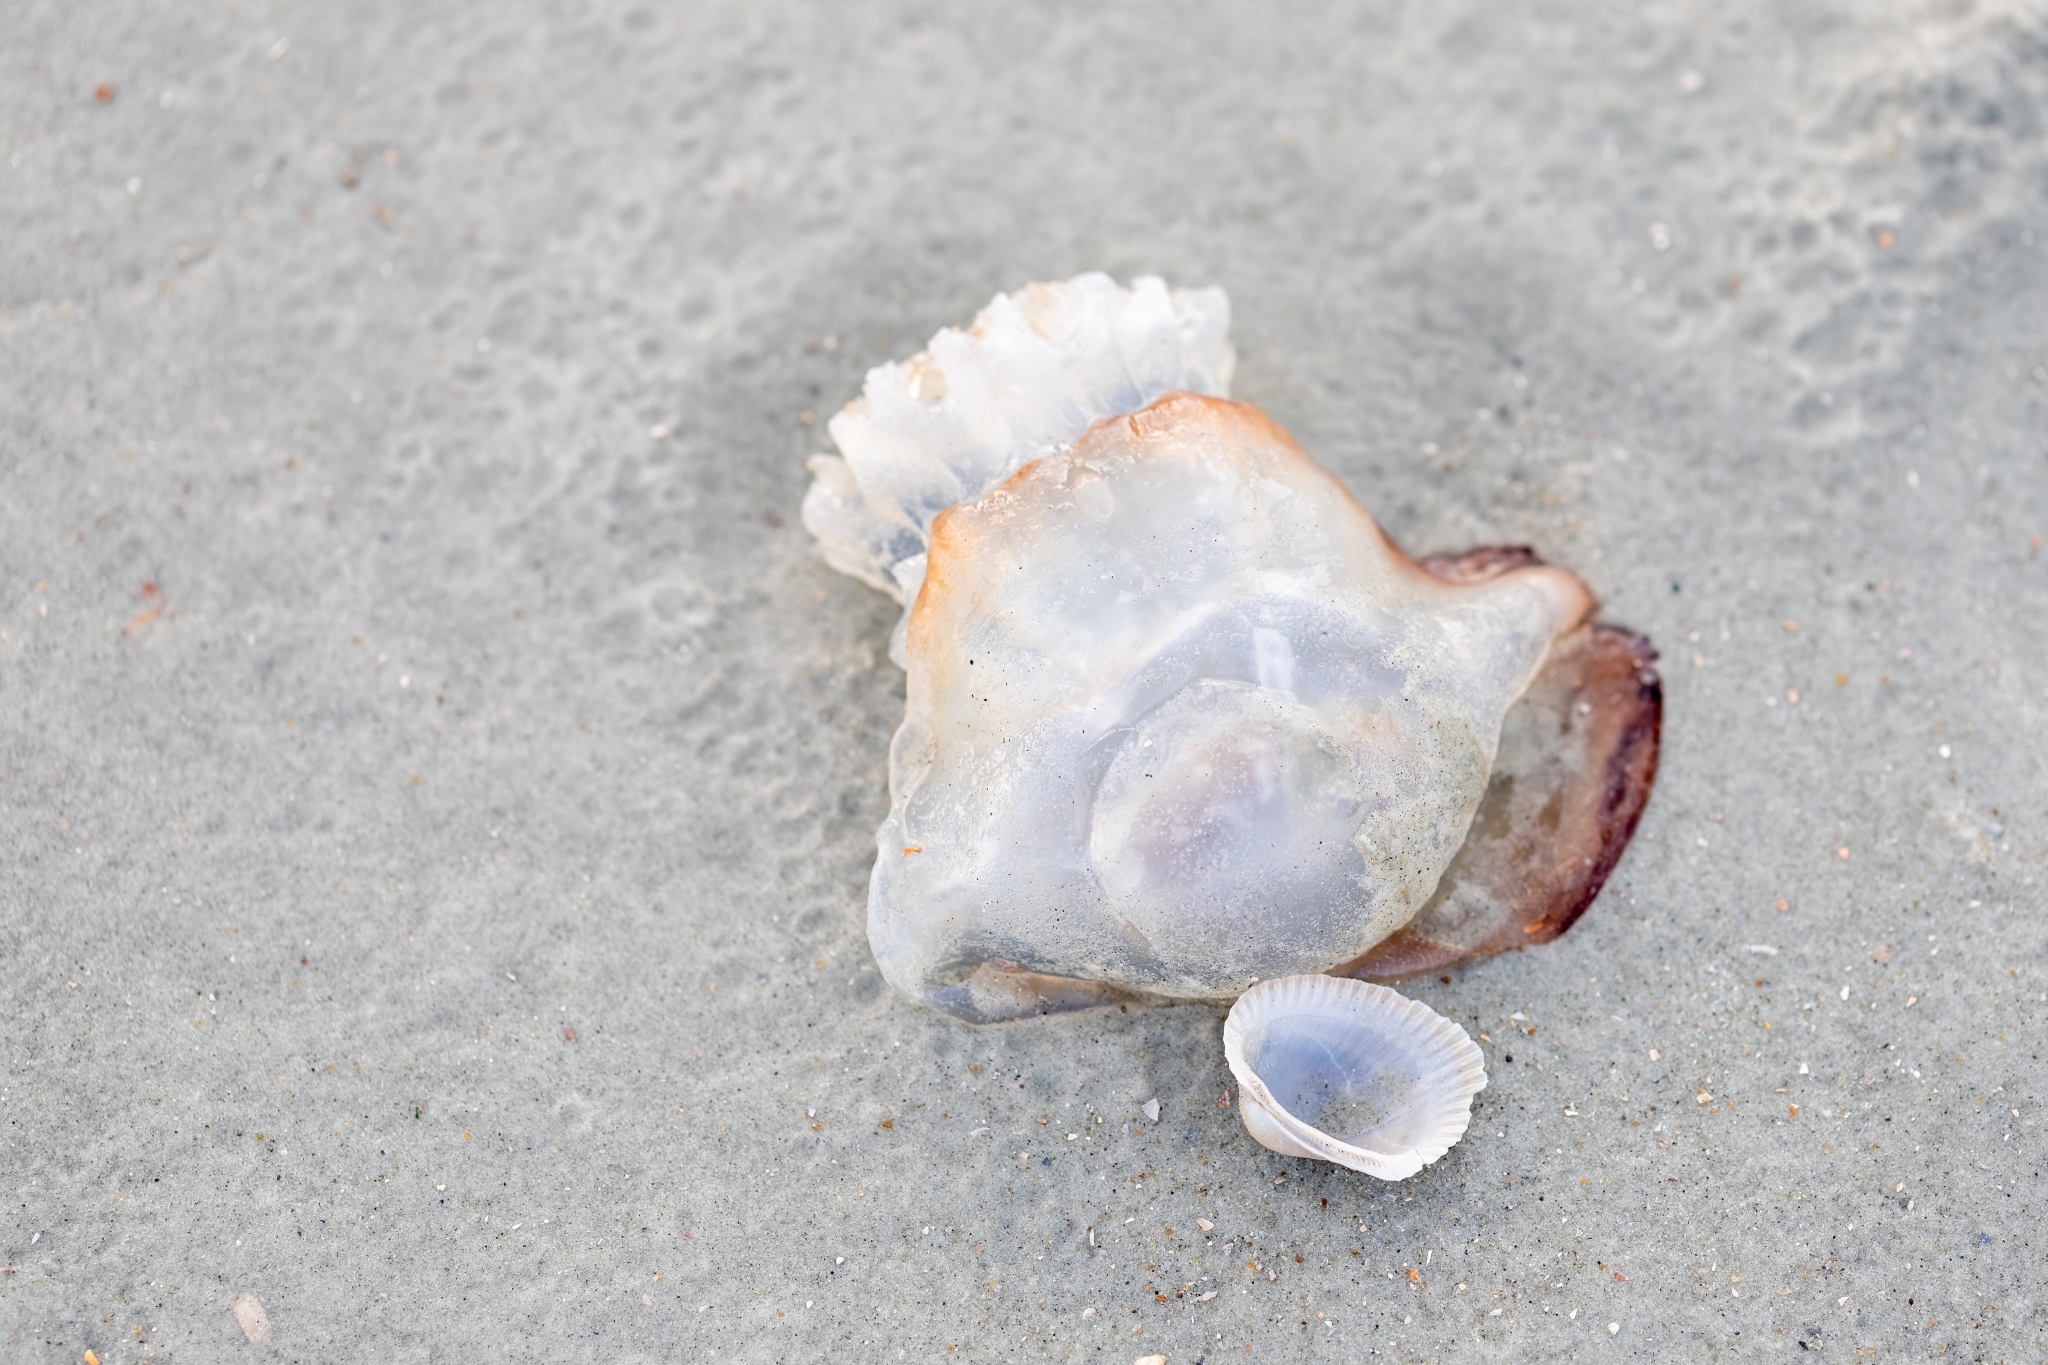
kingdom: Animalia
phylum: Cnidaria
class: Scyphozoa
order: Rhizostomeae
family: Stomolophidae
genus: Stomolophus
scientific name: Stomolophus meleagris
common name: Cabbagehead
